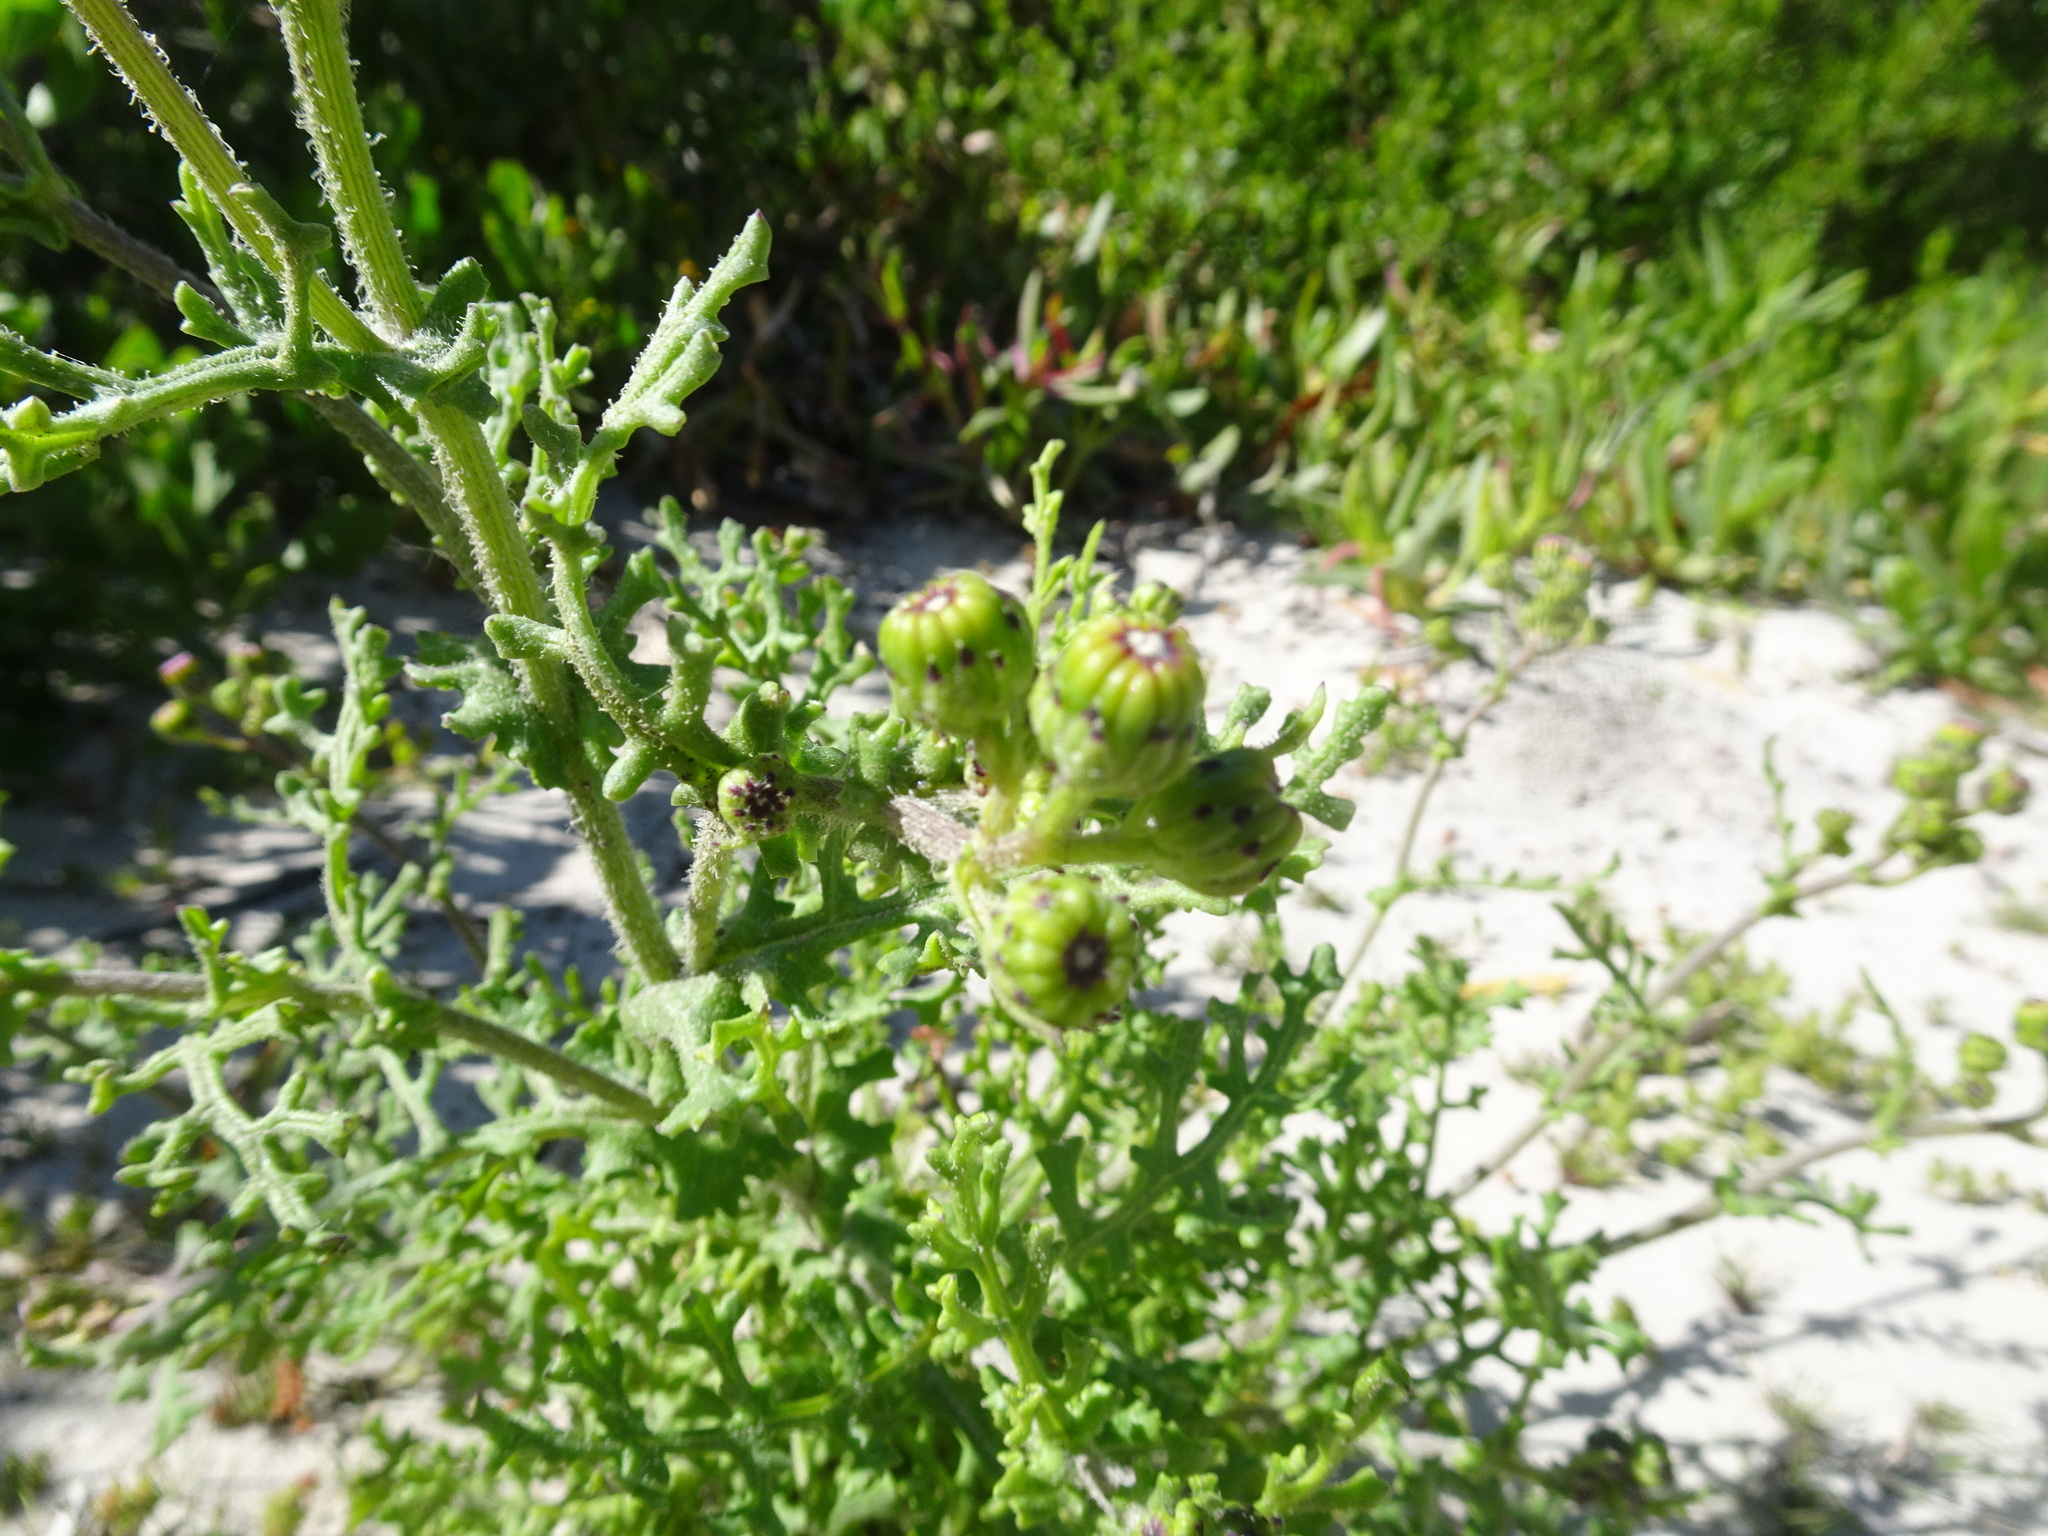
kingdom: Plantae
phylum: Tracheophyta
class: Magnoliopsida
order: Asterales
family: Asteraceae
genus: Senecio
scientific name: Senecio elegans
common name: Purple groundsel
